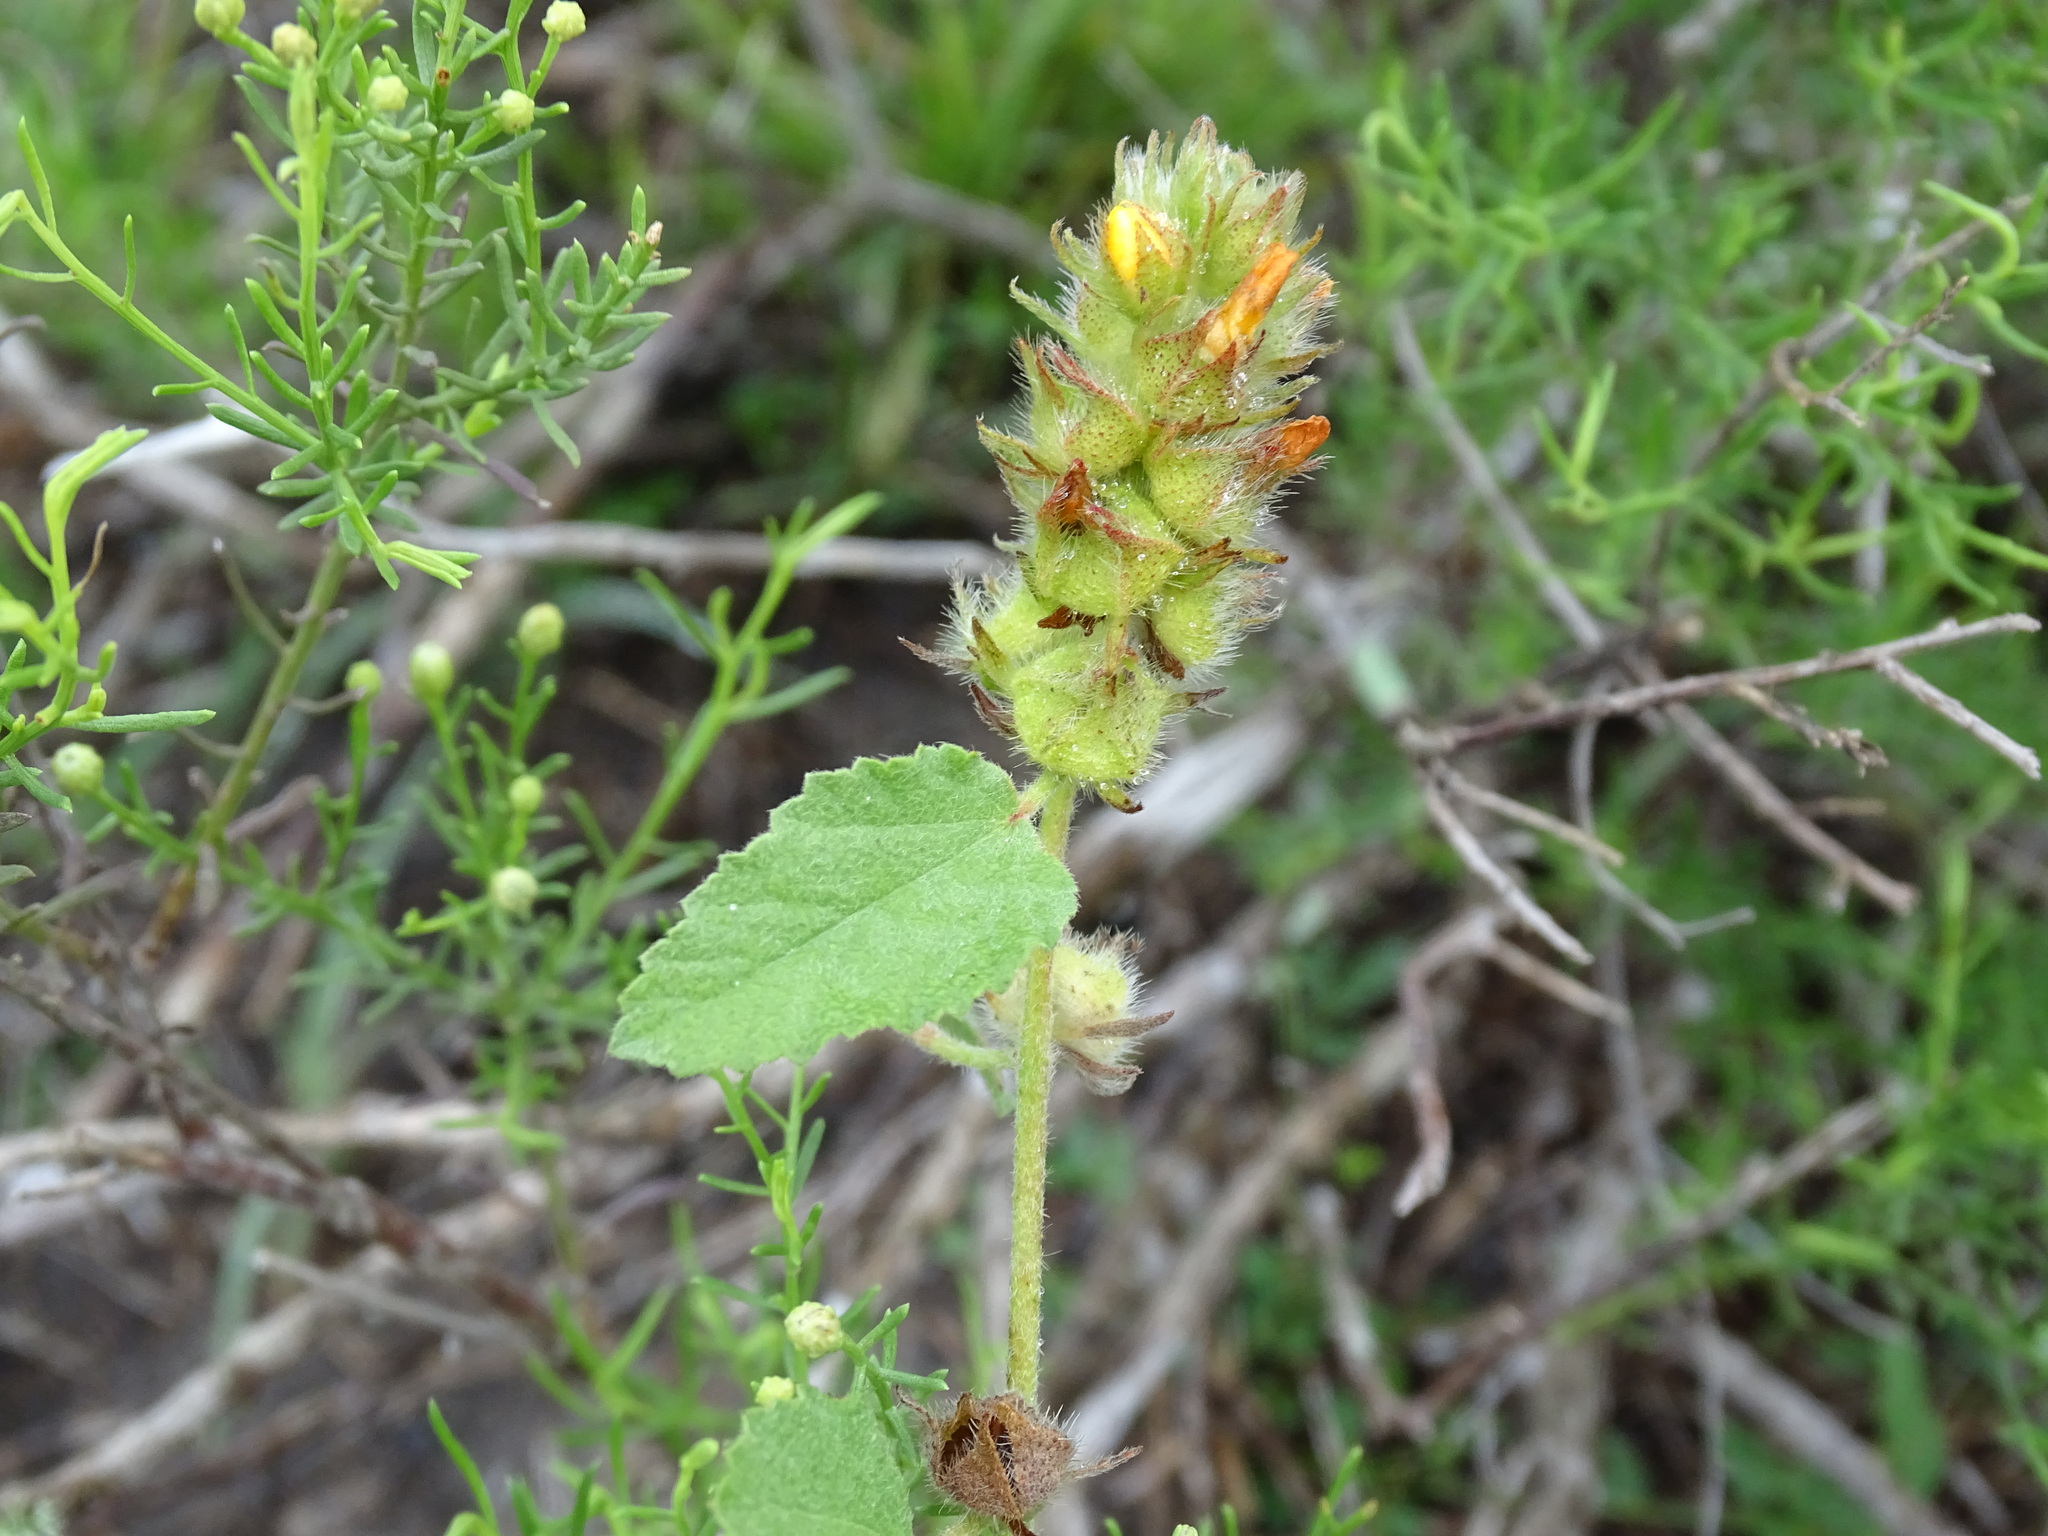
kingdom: Plantae
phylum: Tracheophyta
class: Magnoliopsida
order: Malvales
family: Malvaceae
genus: Malvastrum
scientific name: Malvastrum americanum
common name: Spiked malvastrum
